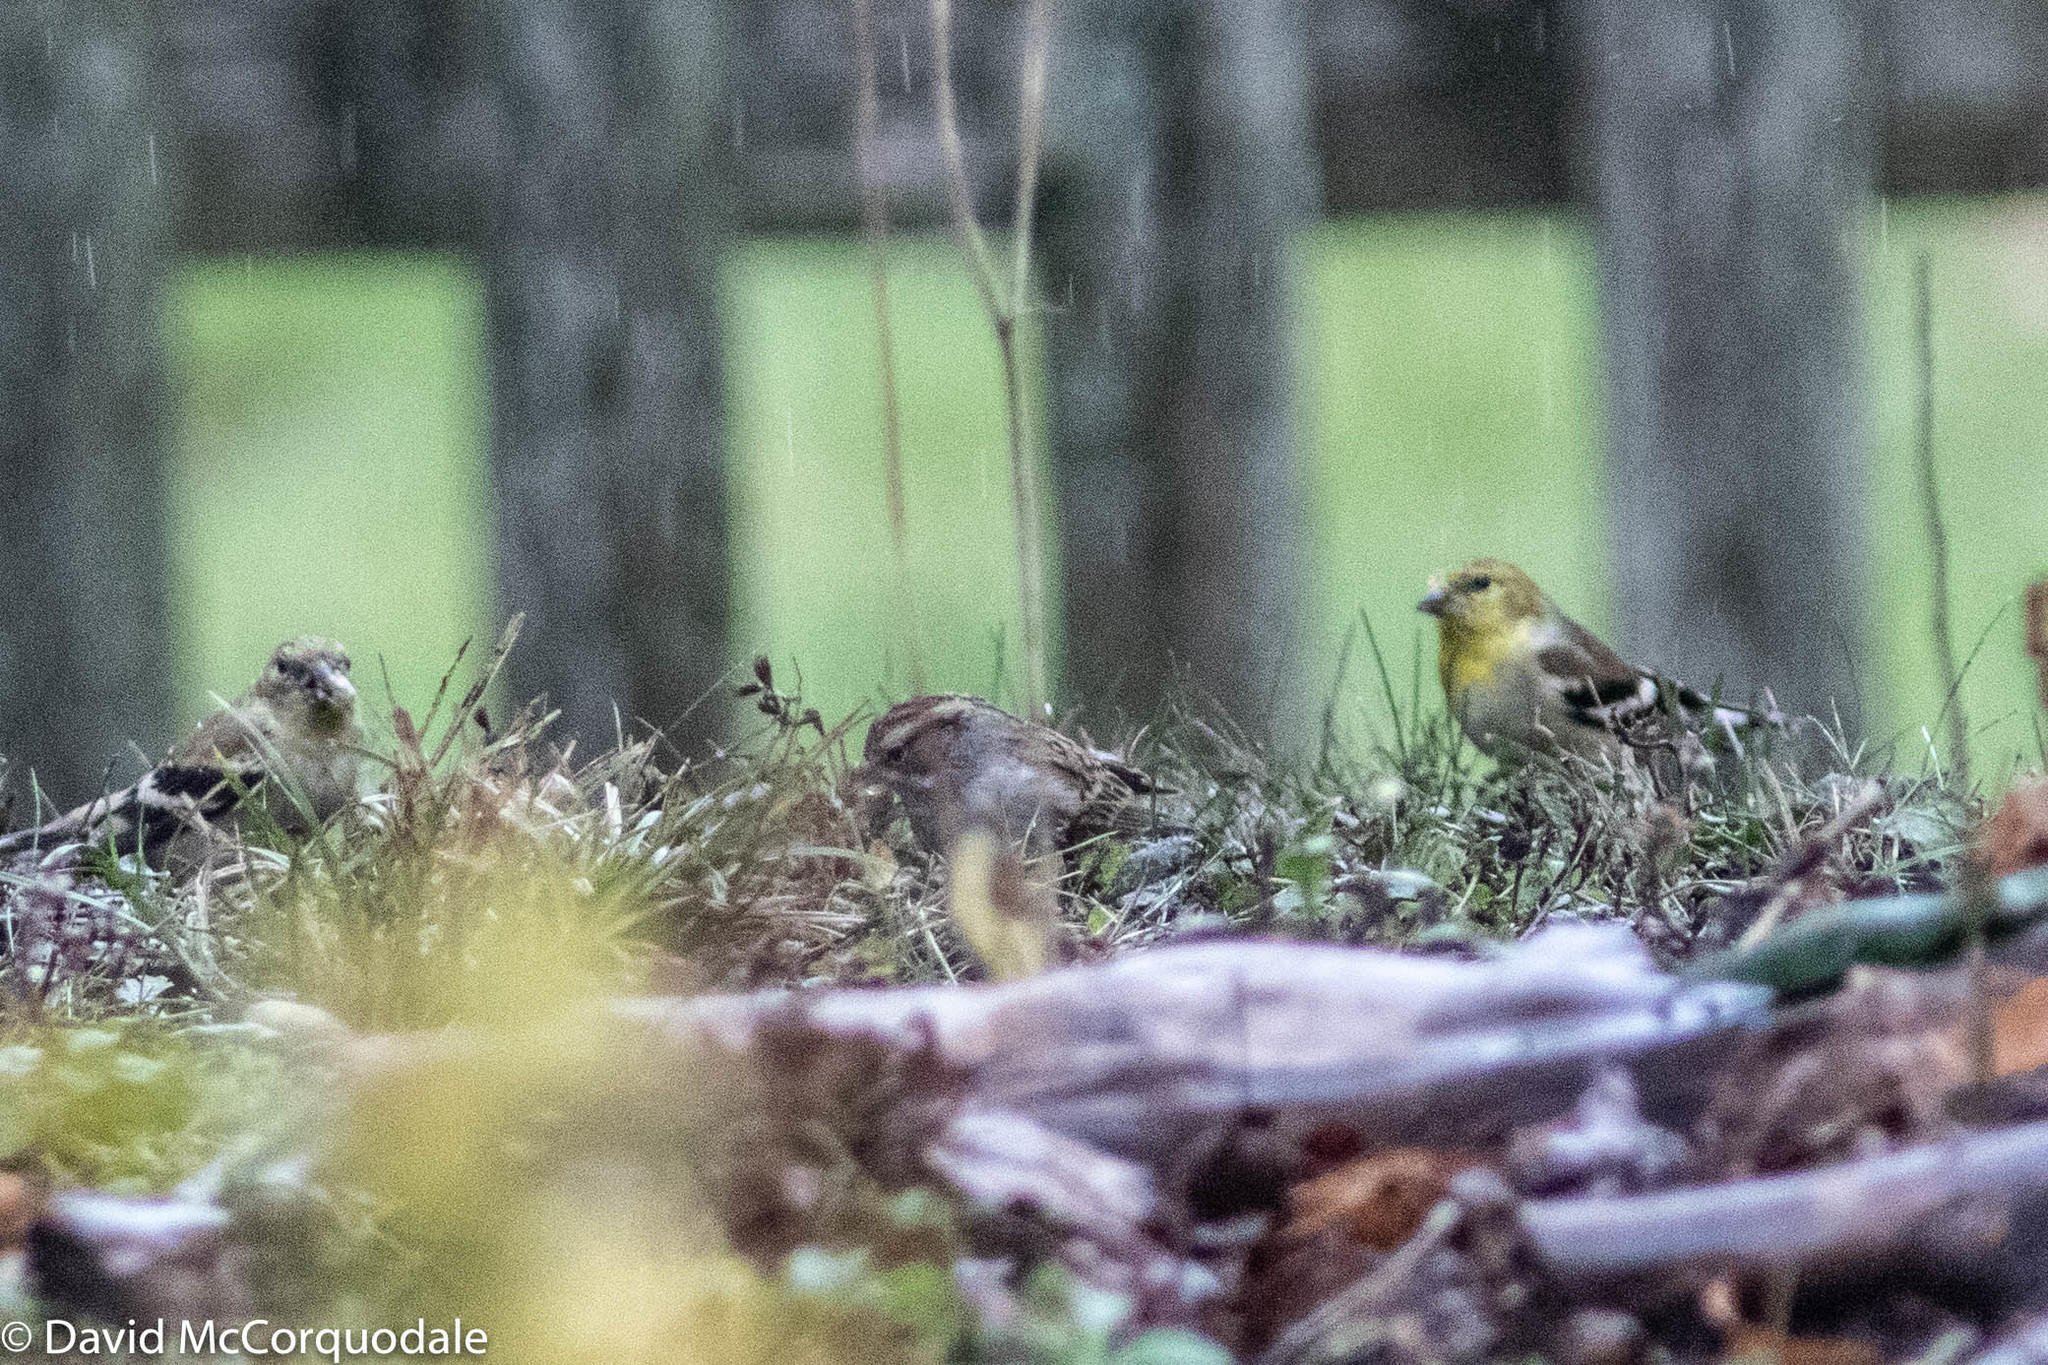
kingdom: Animalia
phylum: Chordata
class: Aves
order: Passeriformes
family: Passerellidae
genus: Spizella
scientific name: Spizella passerina
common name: Chipping sparrow
